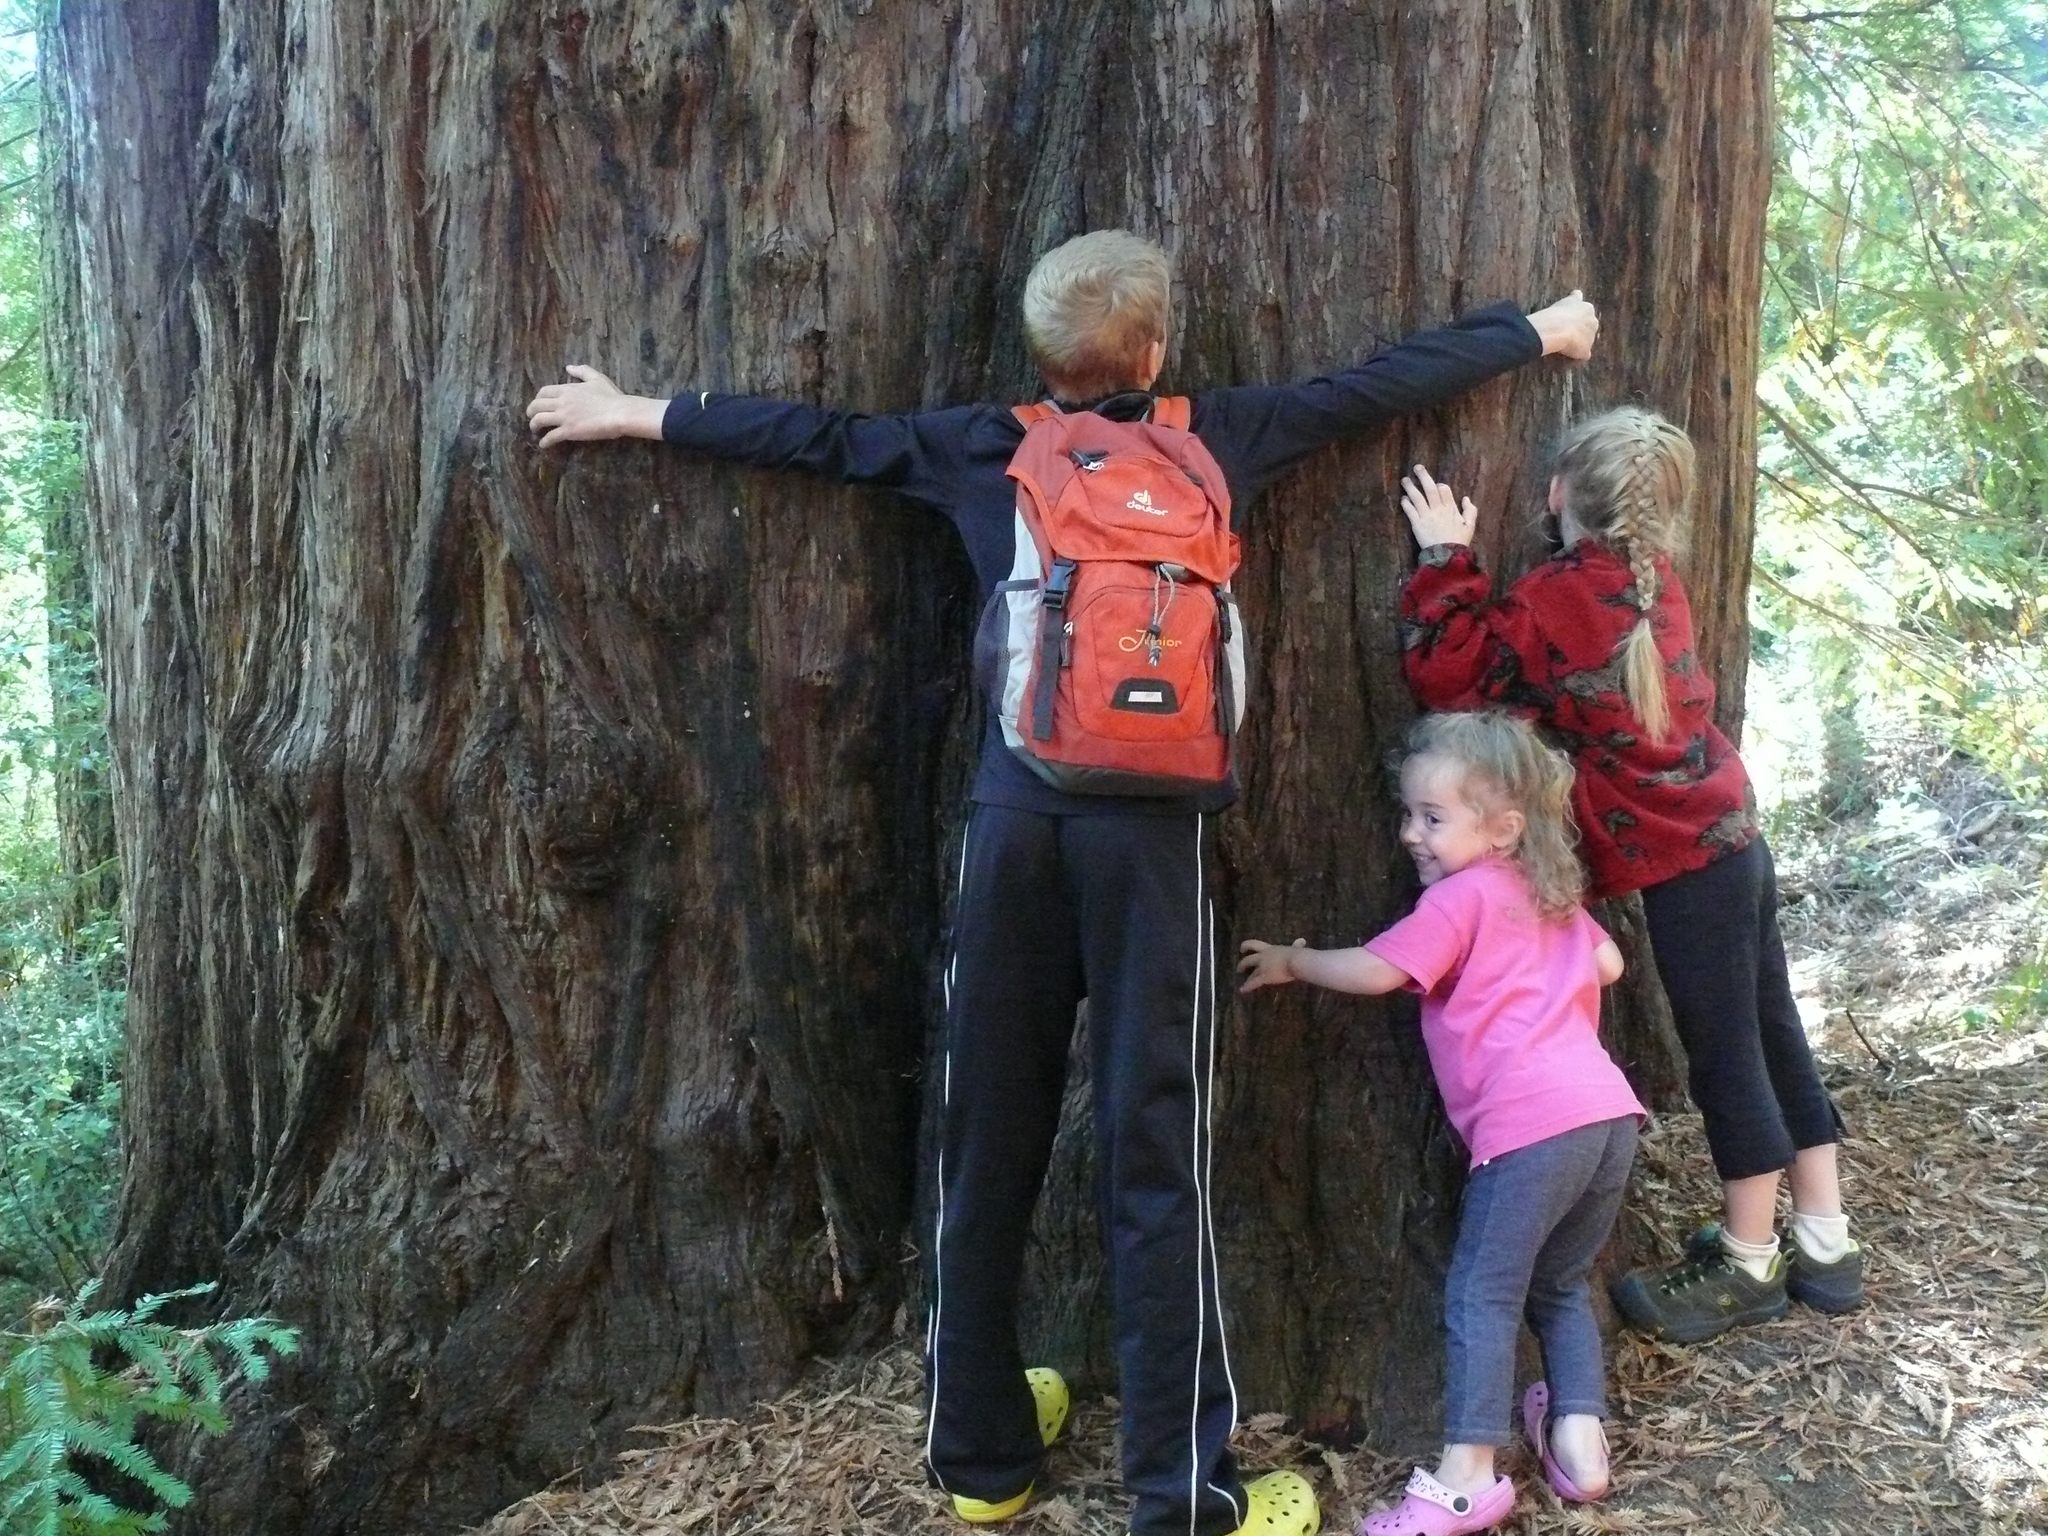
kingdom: Plantae
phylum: Tracheophyta
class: Pinopsida
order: Pinales
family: Cupressaceae
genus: Sequoia
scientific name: Sequoia sempervirens
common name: Coast redwood
